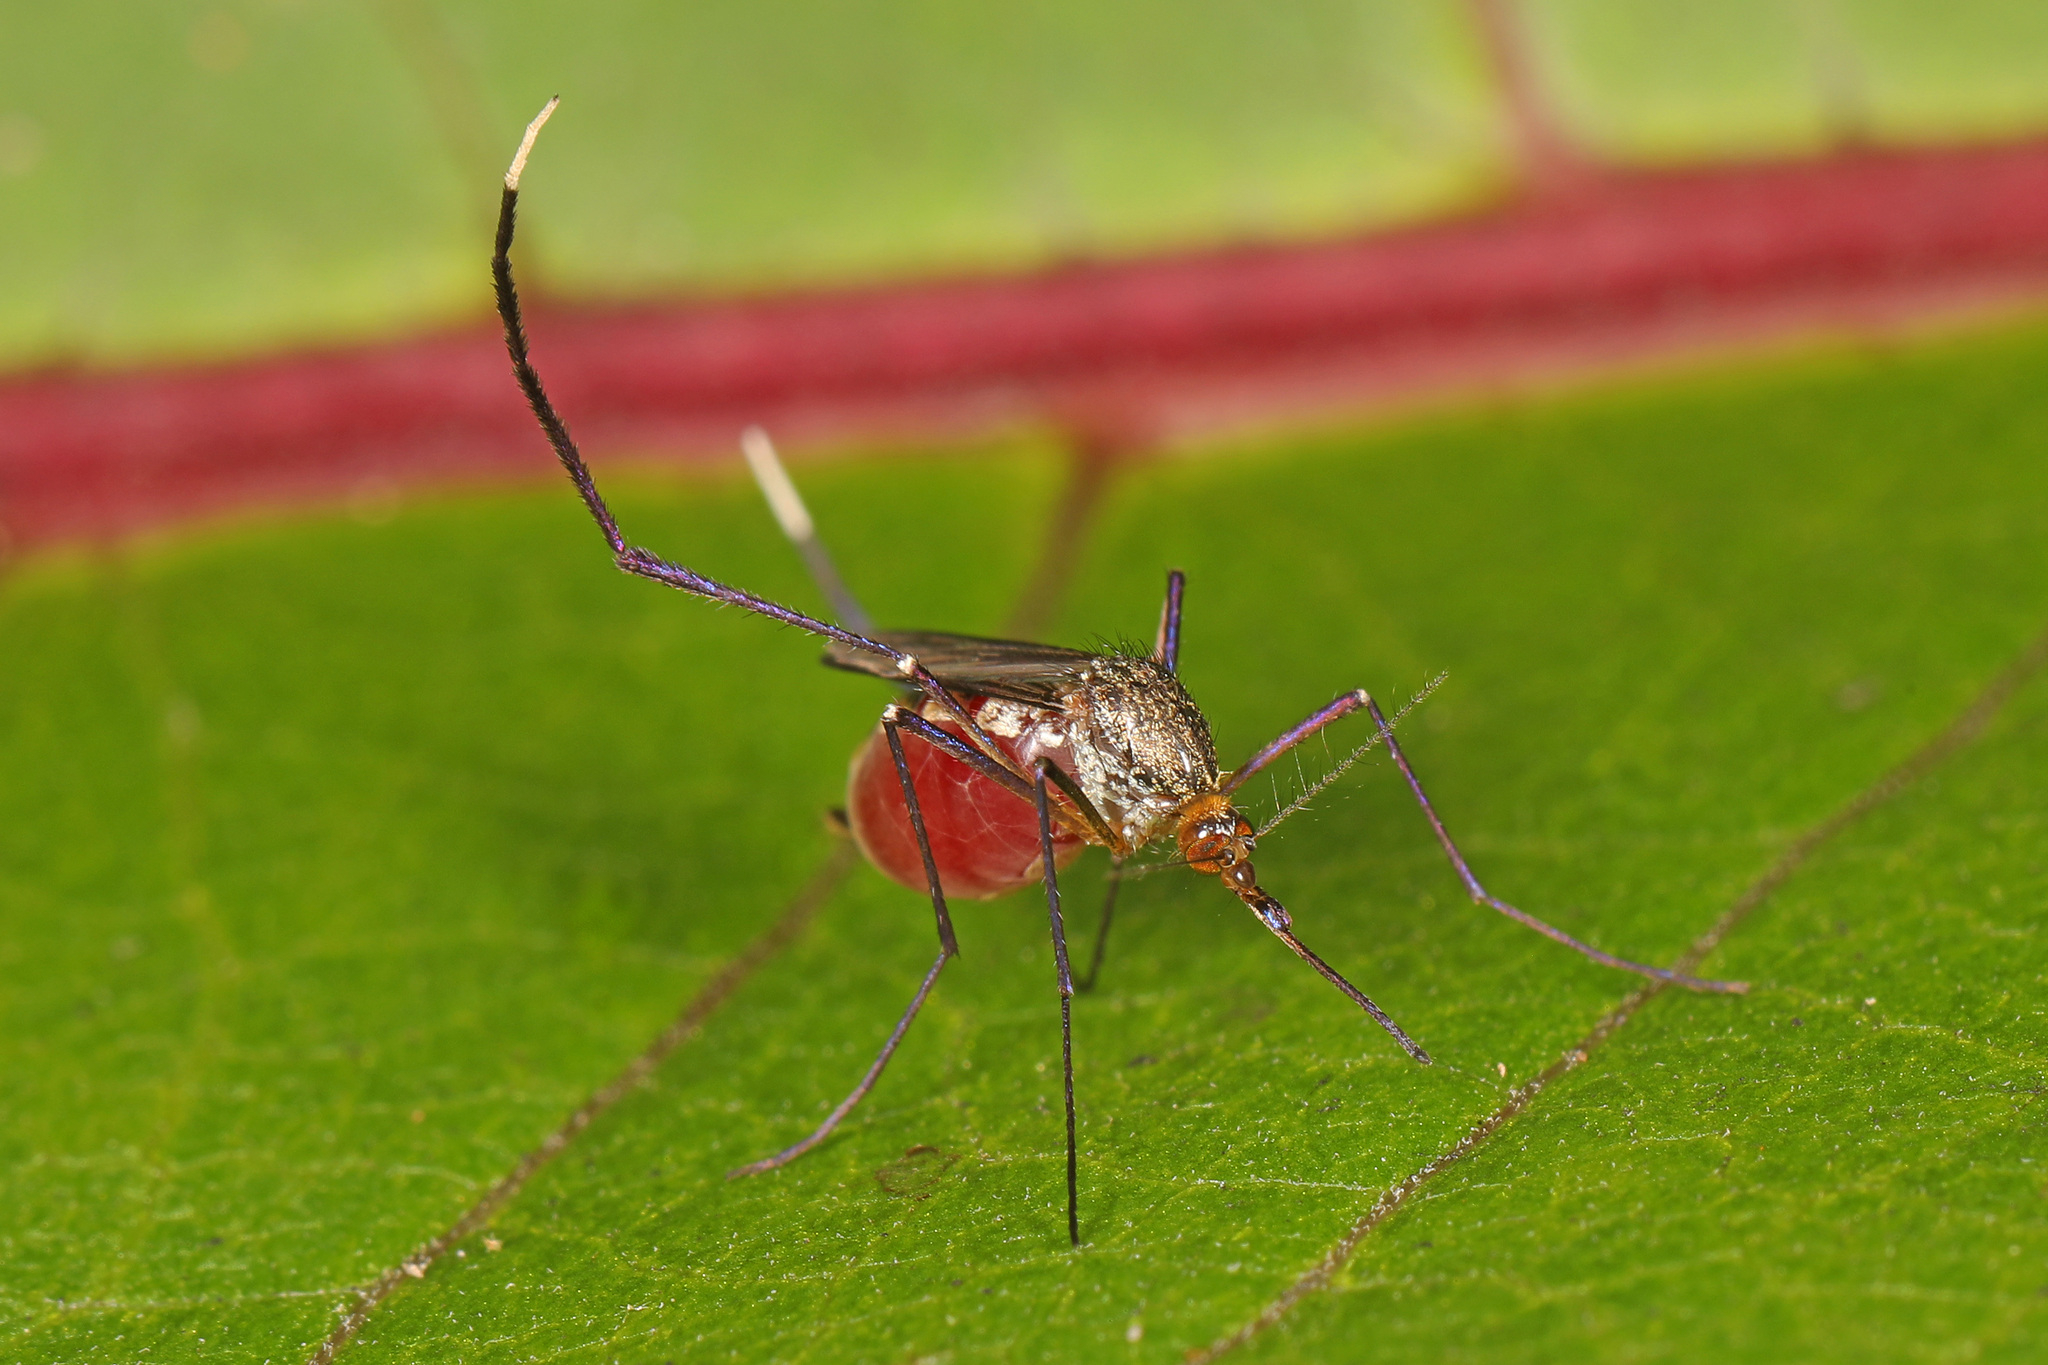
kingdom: Animalia
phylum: Arthropoda
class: Insecta
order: Diptera
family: Culicidae
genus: Psorophora
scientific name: Psorophora ferox
